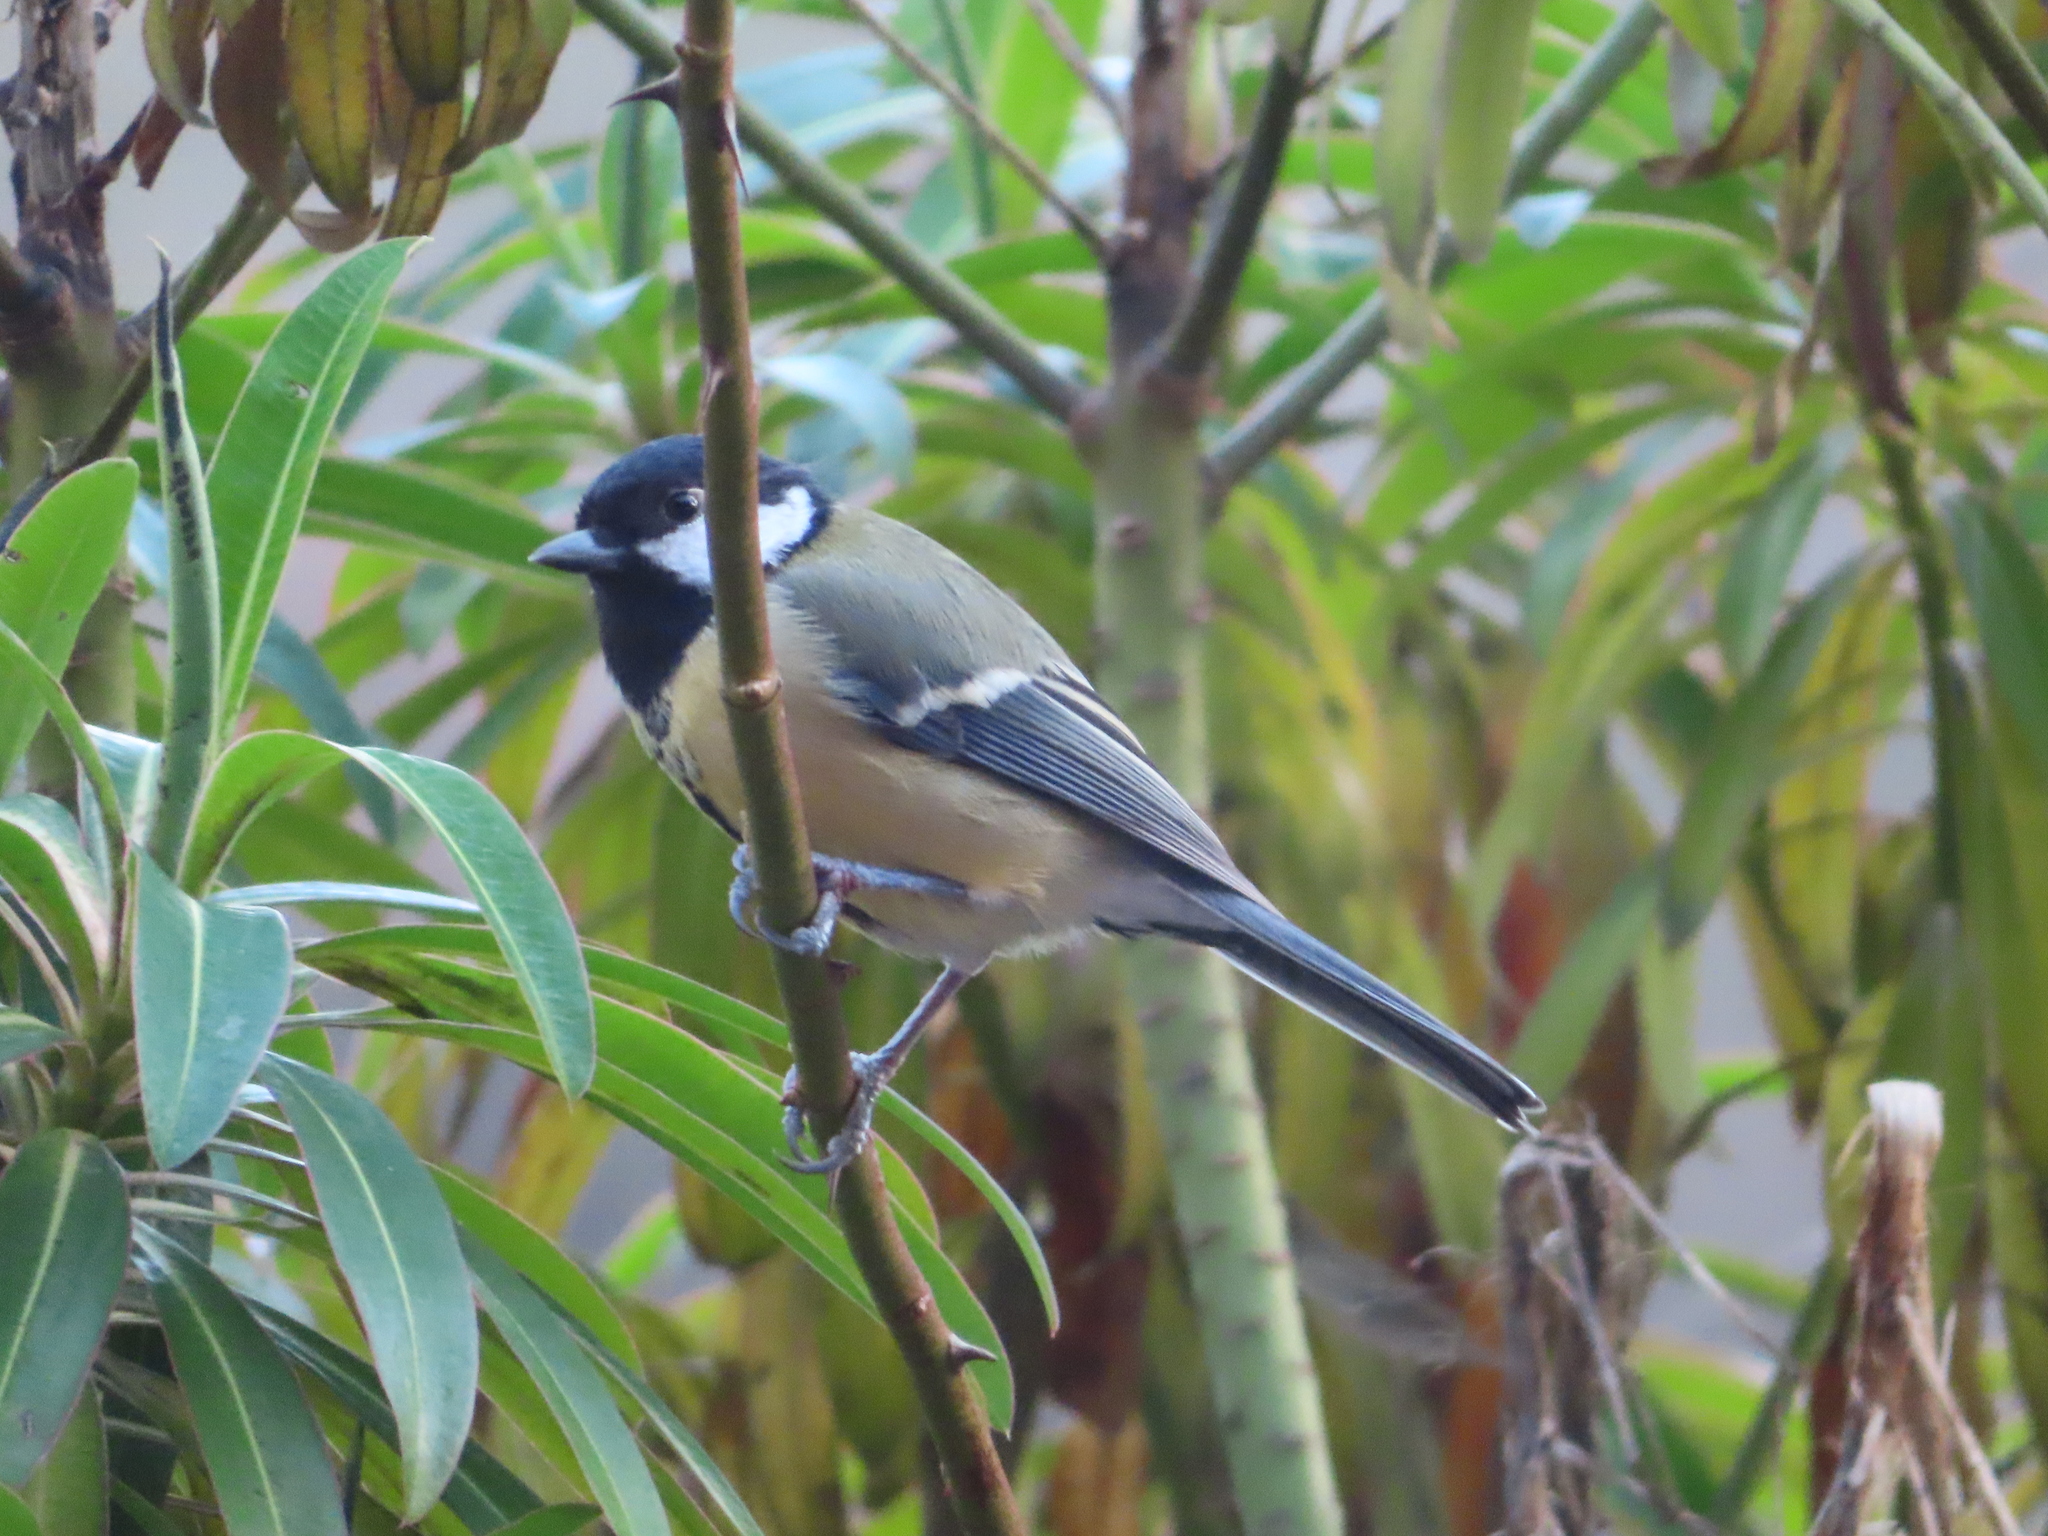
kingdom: Animalia
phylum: Chordata
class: Aves
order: Passeriformes
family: Paridae
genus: Parus
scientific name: Parus major
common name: Great tit
